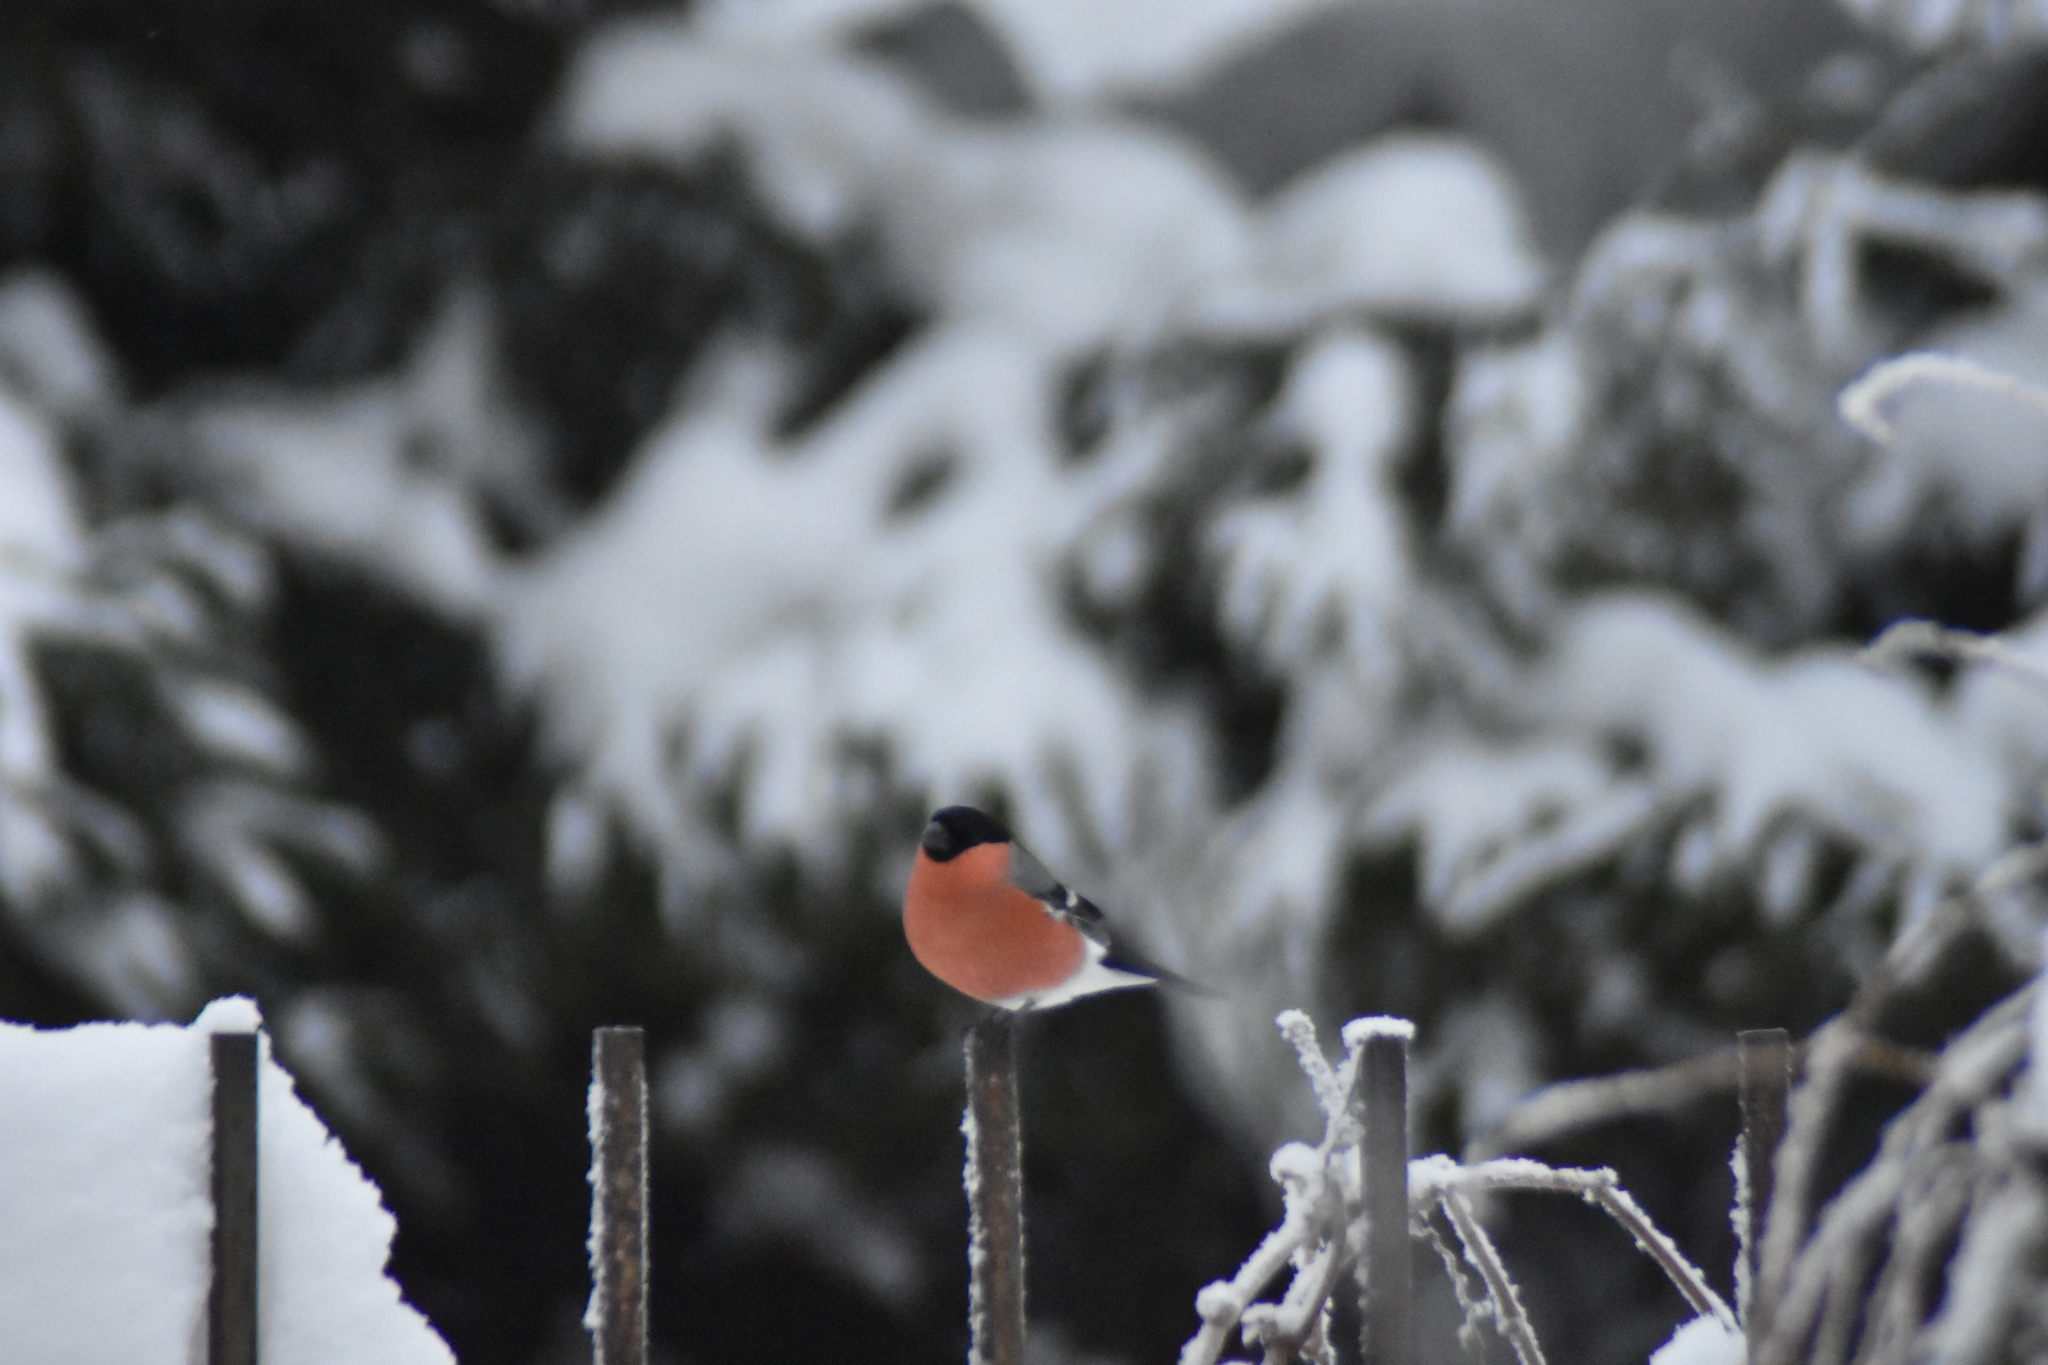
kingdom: Animalia
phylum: Chordata
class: Aves
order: Passeriformes
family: Fringillidae
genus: Pyrrhula
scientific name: Pyrrhula pyrrhula
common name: Eurasian bullfinch
